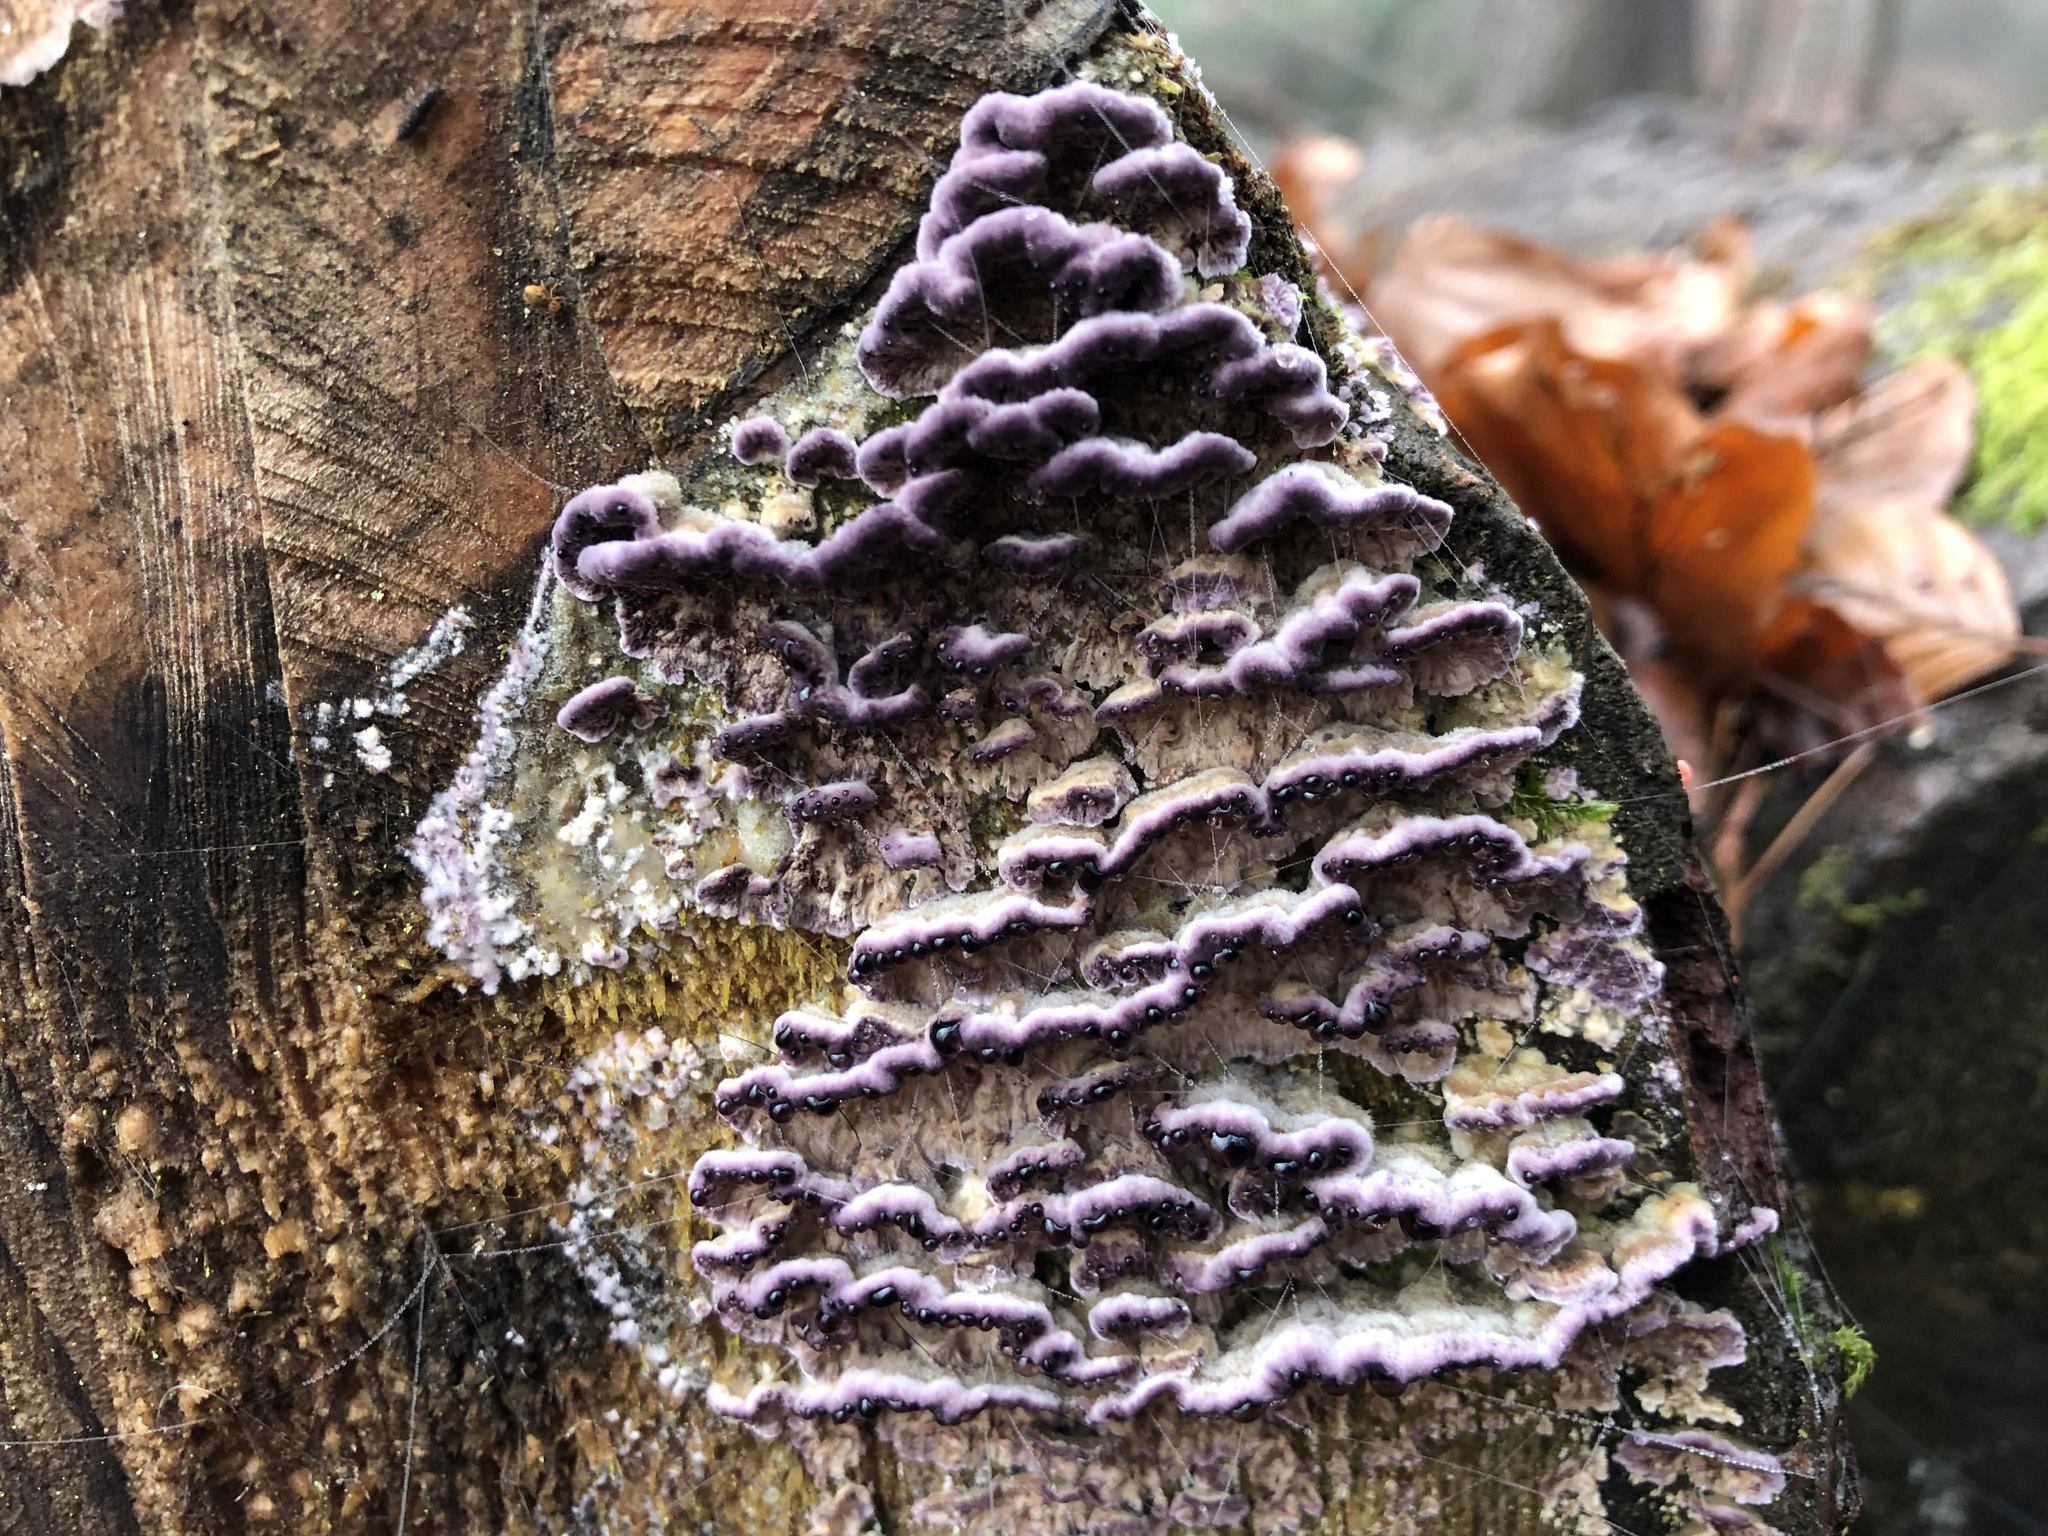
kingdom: Fungi
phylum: Basidiomycota
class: Agaricomycetes
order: Agaricales
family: Cyphellaceae
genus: Chondrostereum
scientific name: Chondrostereum purpureum
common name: Silver leaf disease
